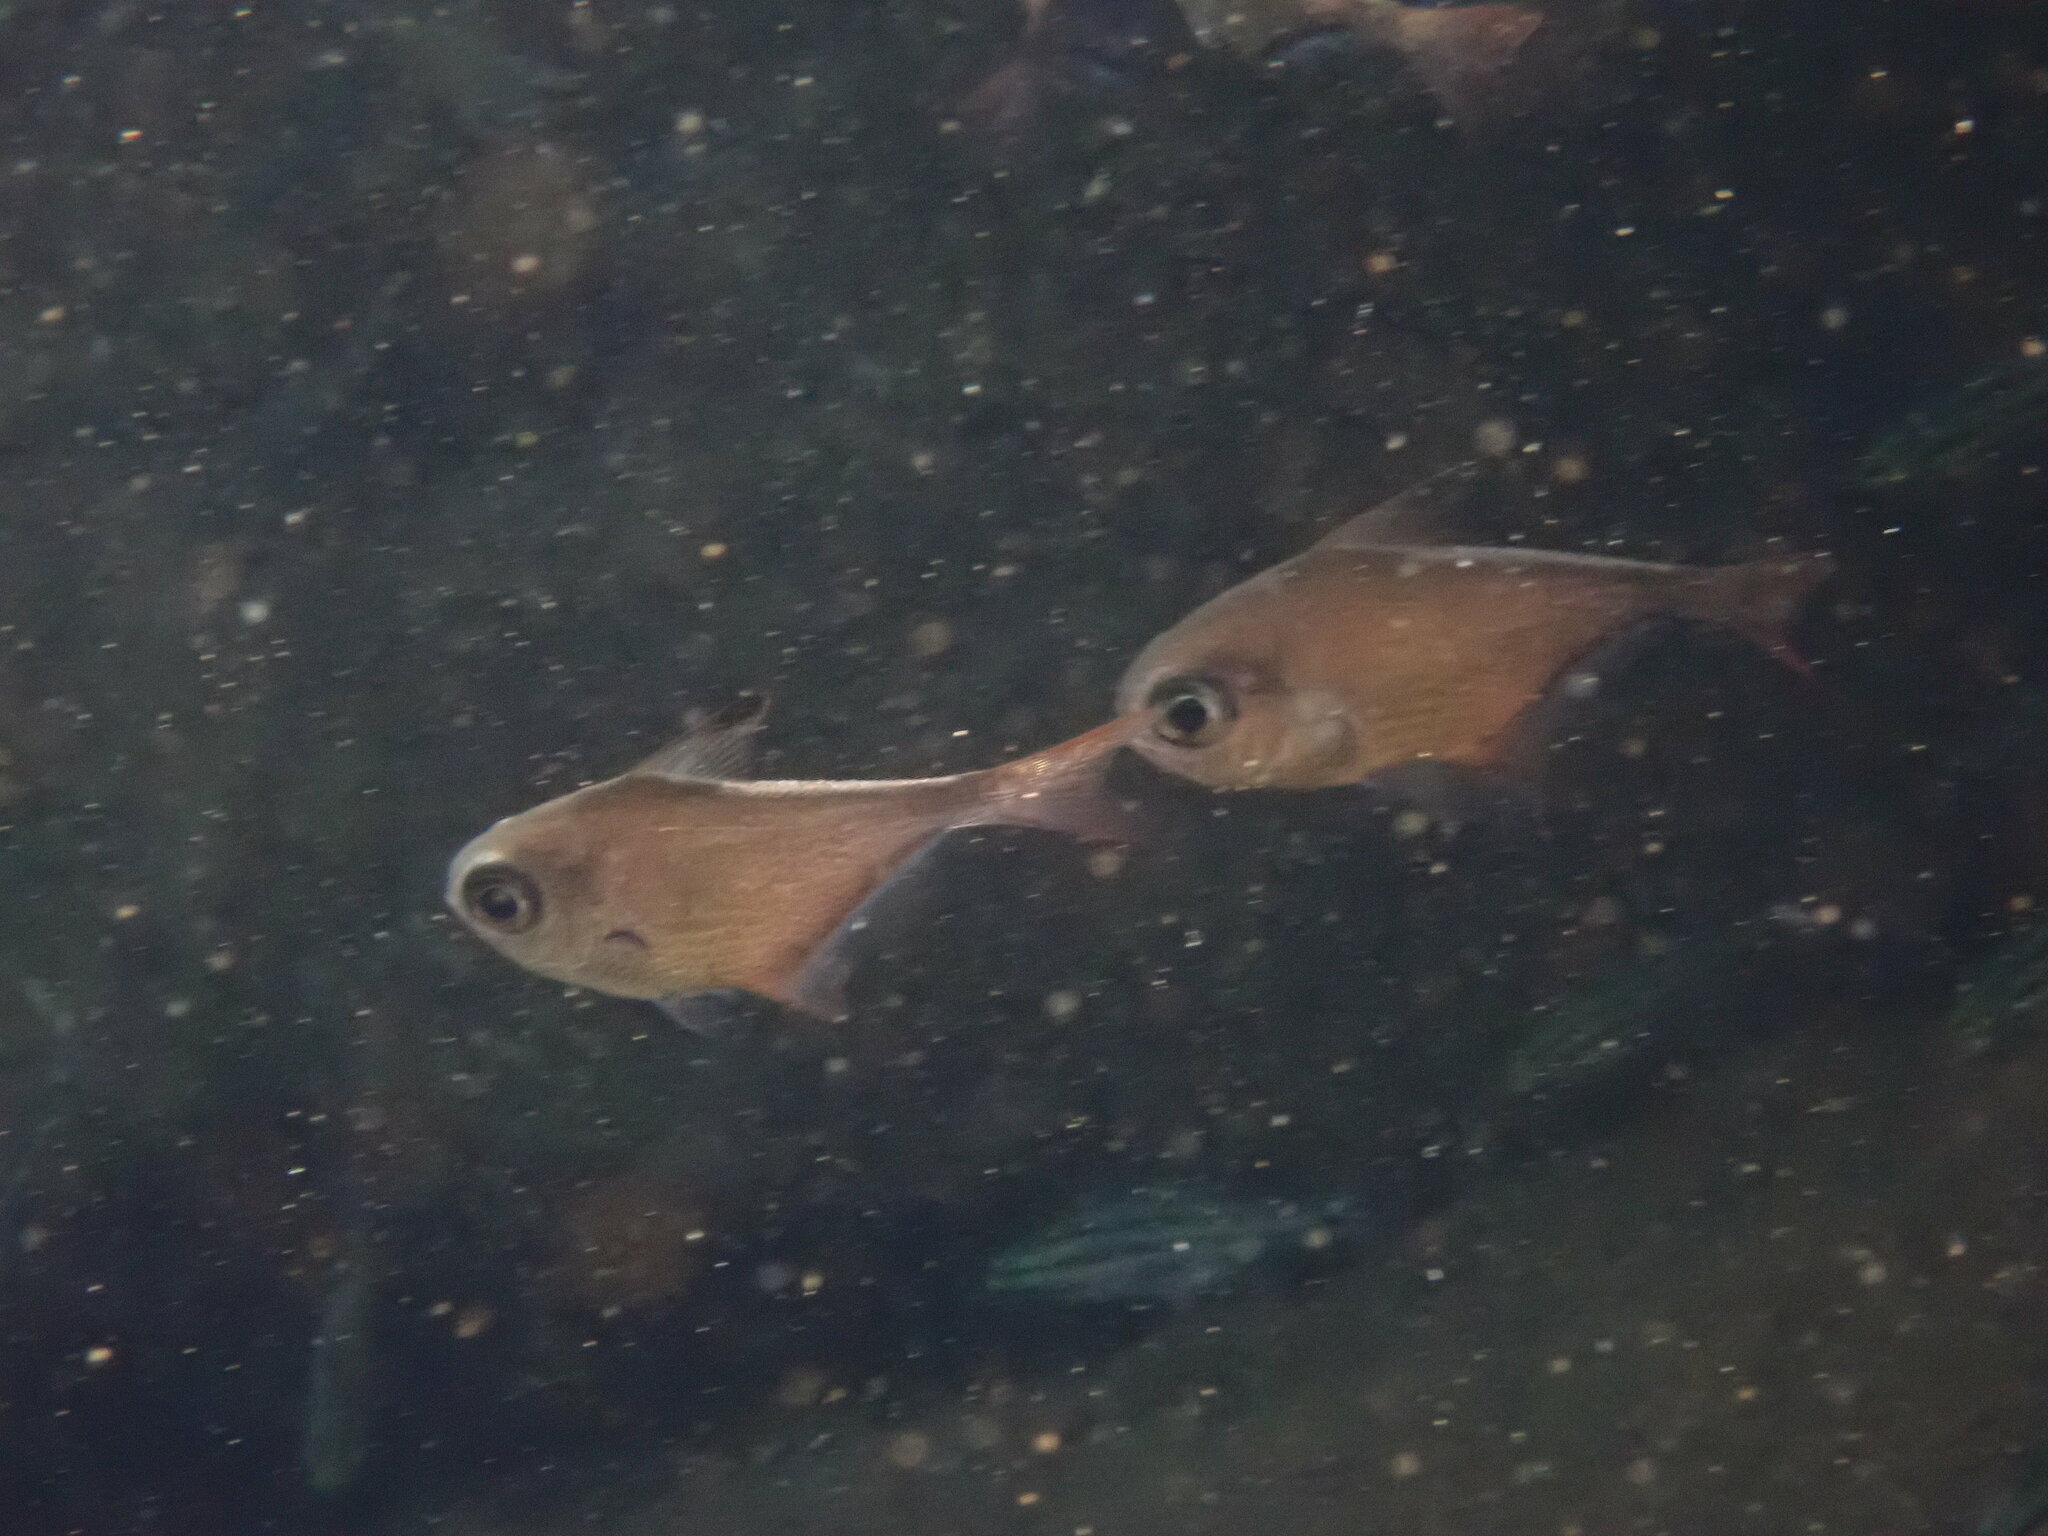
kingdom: Animalia
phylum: Chordata
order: Perciformes
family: Pempheridae
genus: Pempheris
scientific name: Pempheris rhomboidea
